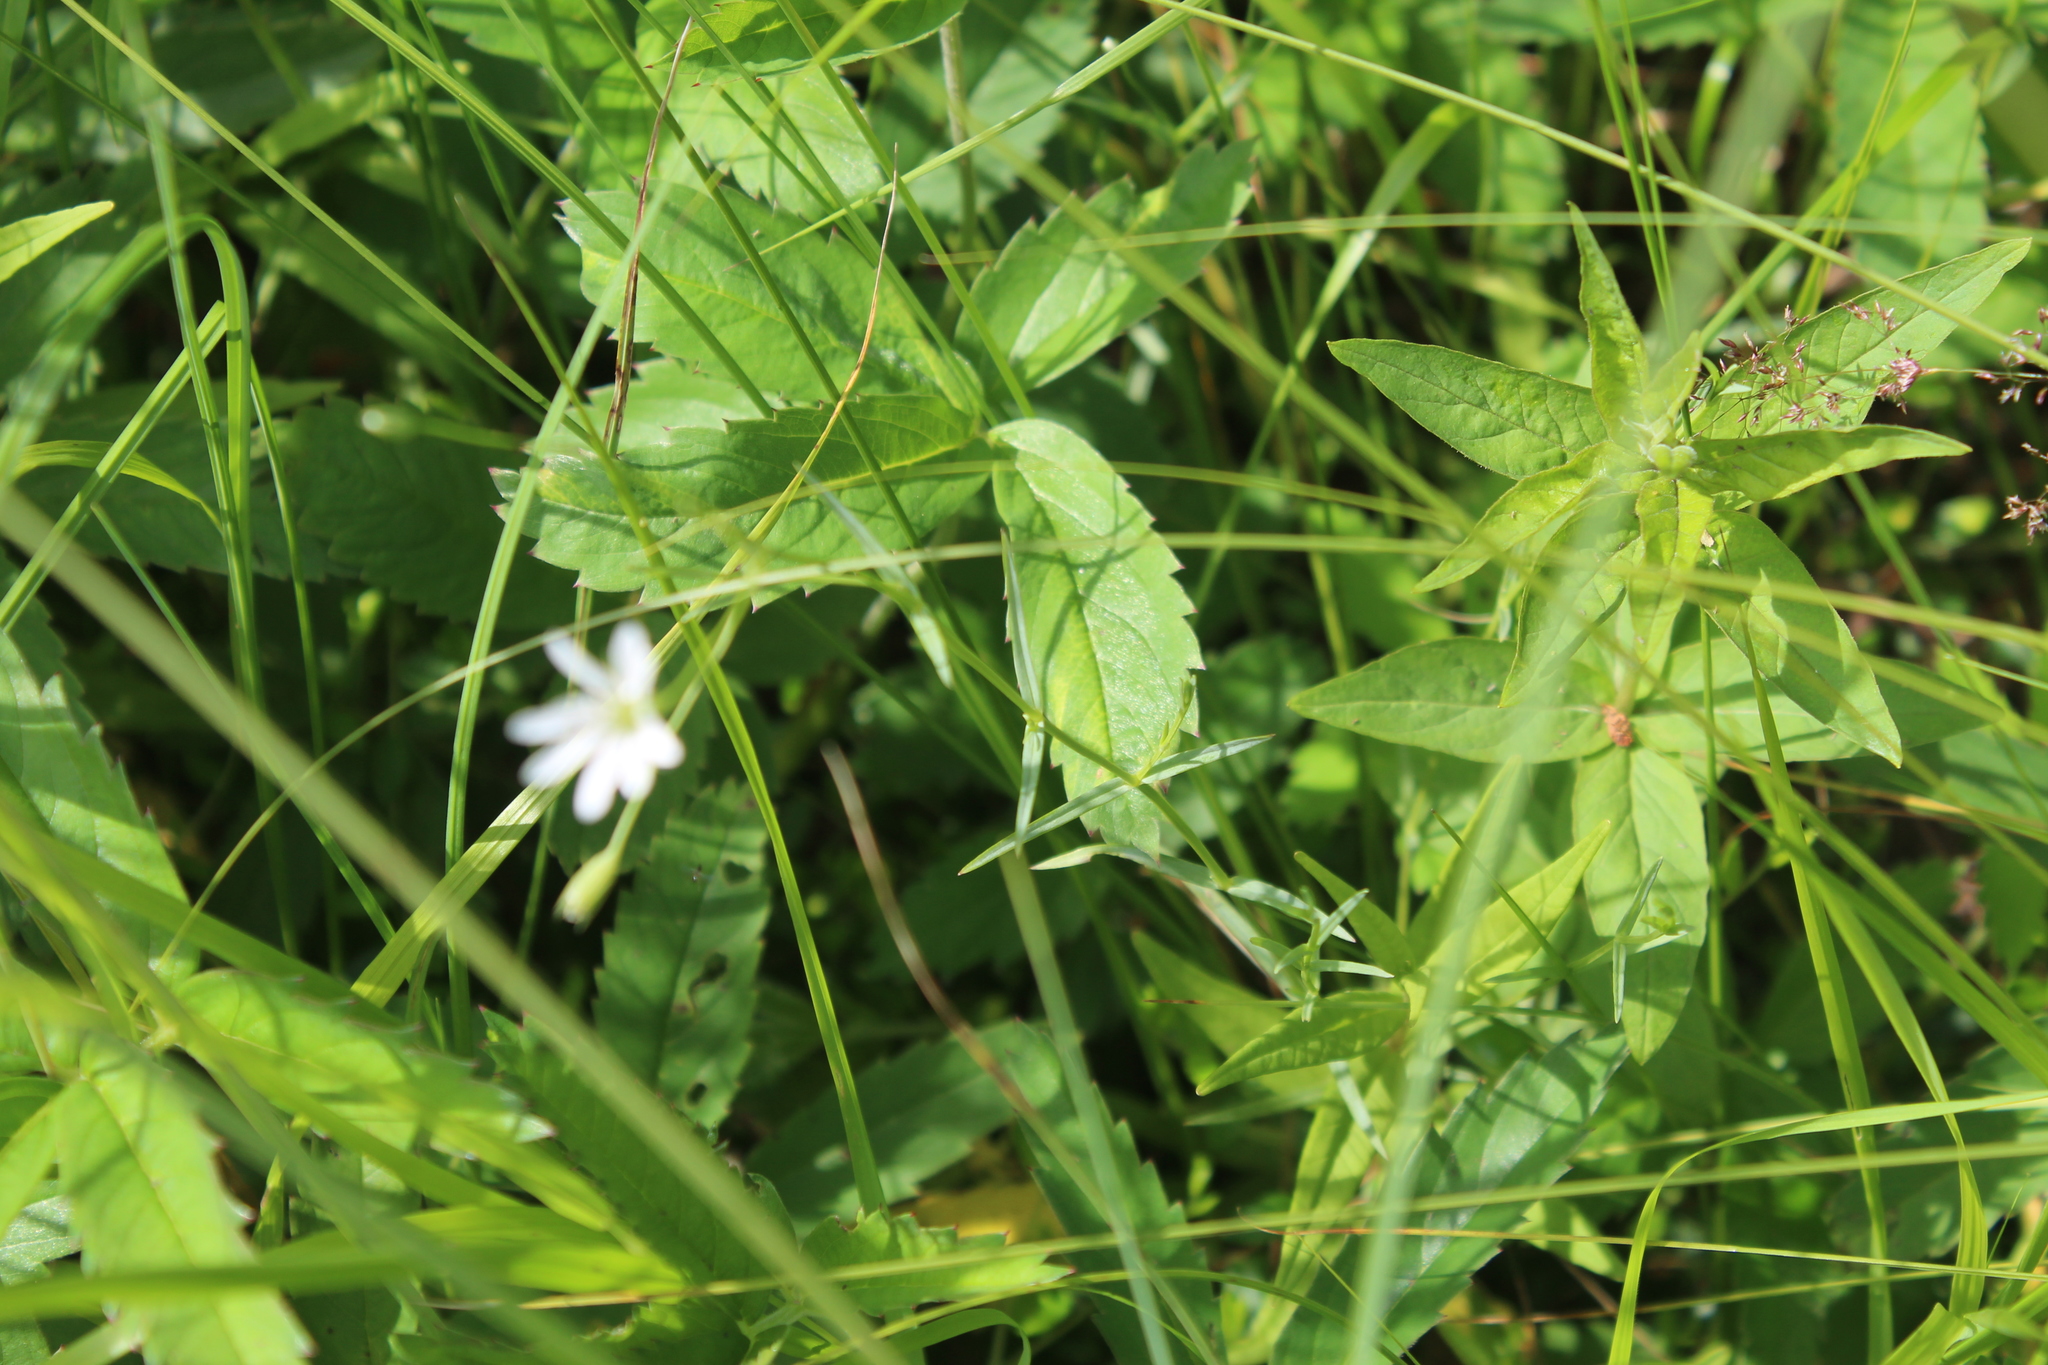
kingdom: Plantae
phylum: Tracheophyta
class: Magnoliopsida
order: Caryophyllales
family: Caryophyllaceae
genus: Stellaria
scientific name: Stellaria palustris
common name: Marsh stitchwort
